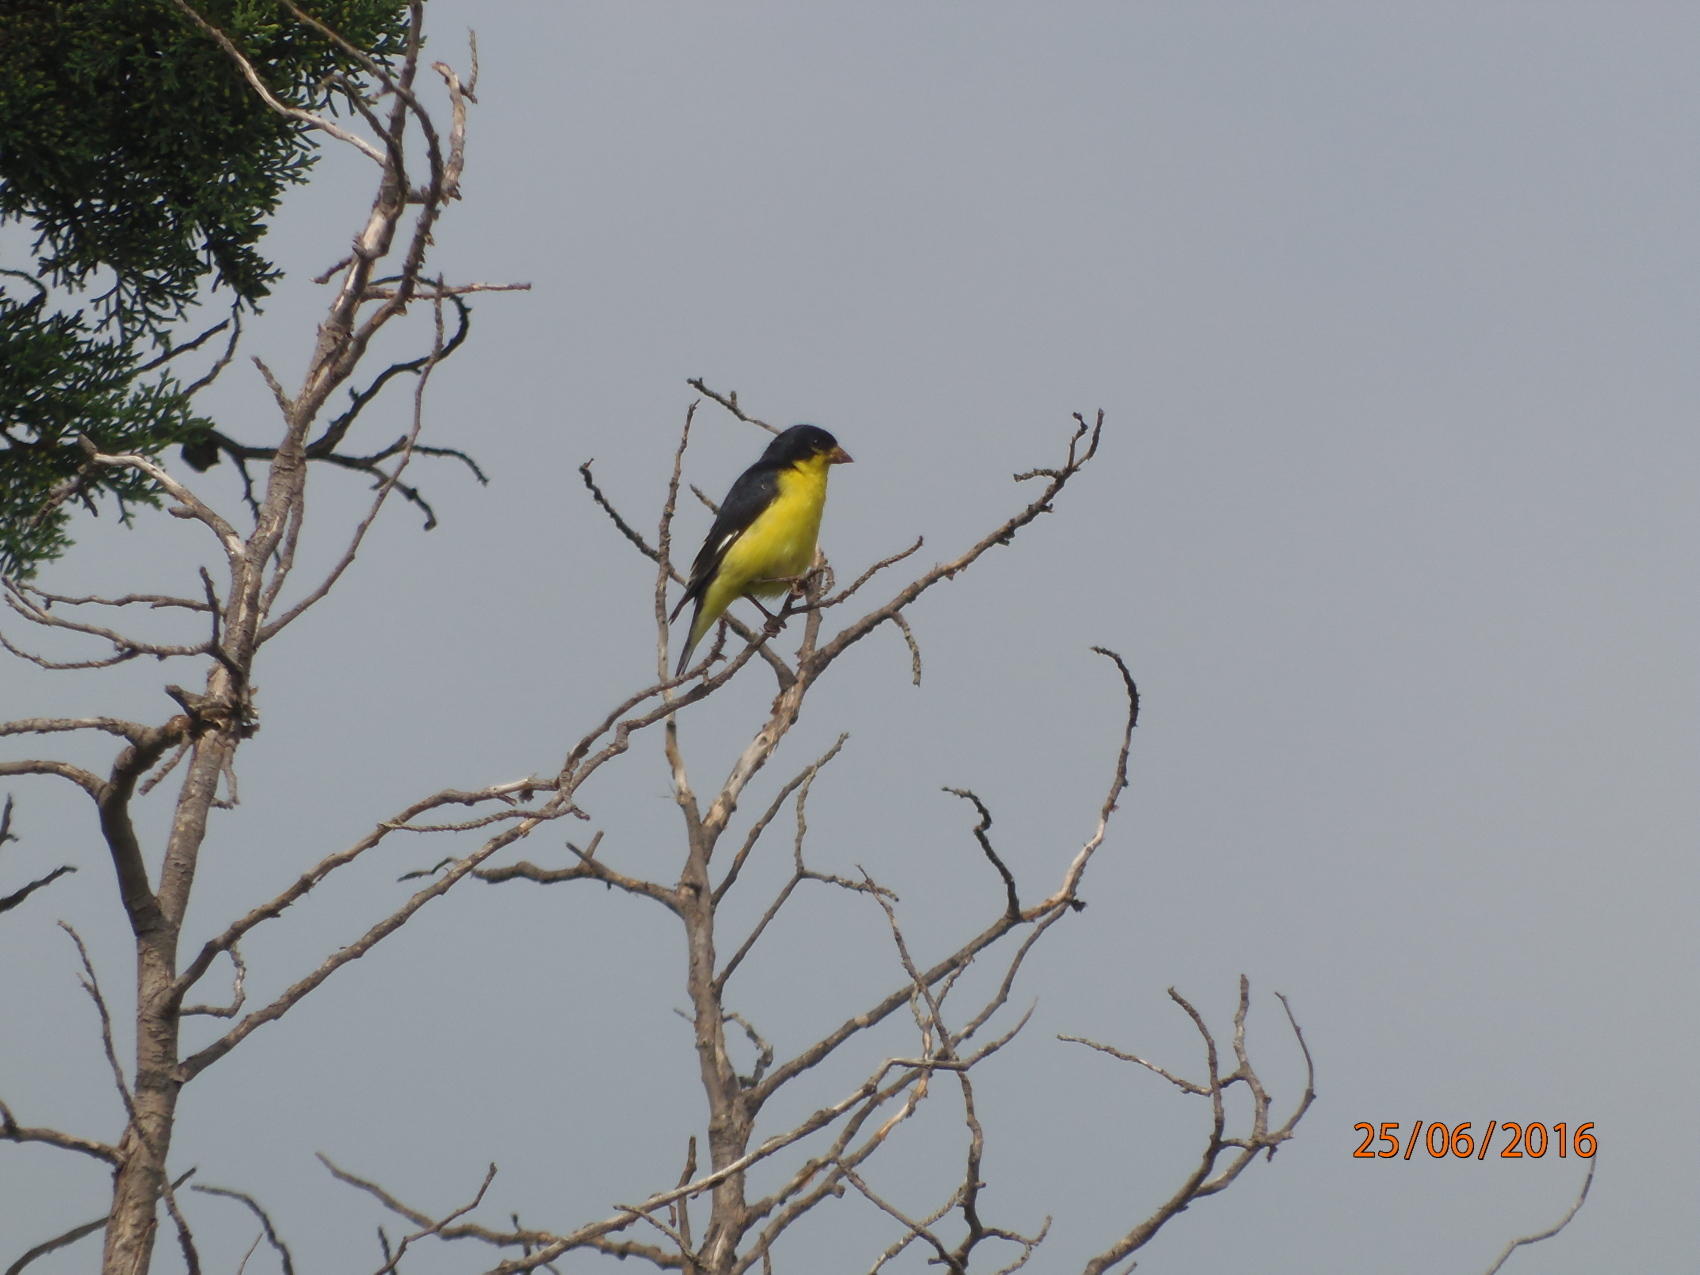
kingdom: Animalia
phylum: Chordata
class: Aves
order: Passeriformes
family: Fringillidae
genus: Spinus
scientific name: Spinus psaltria
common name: Lesser goldfinch
